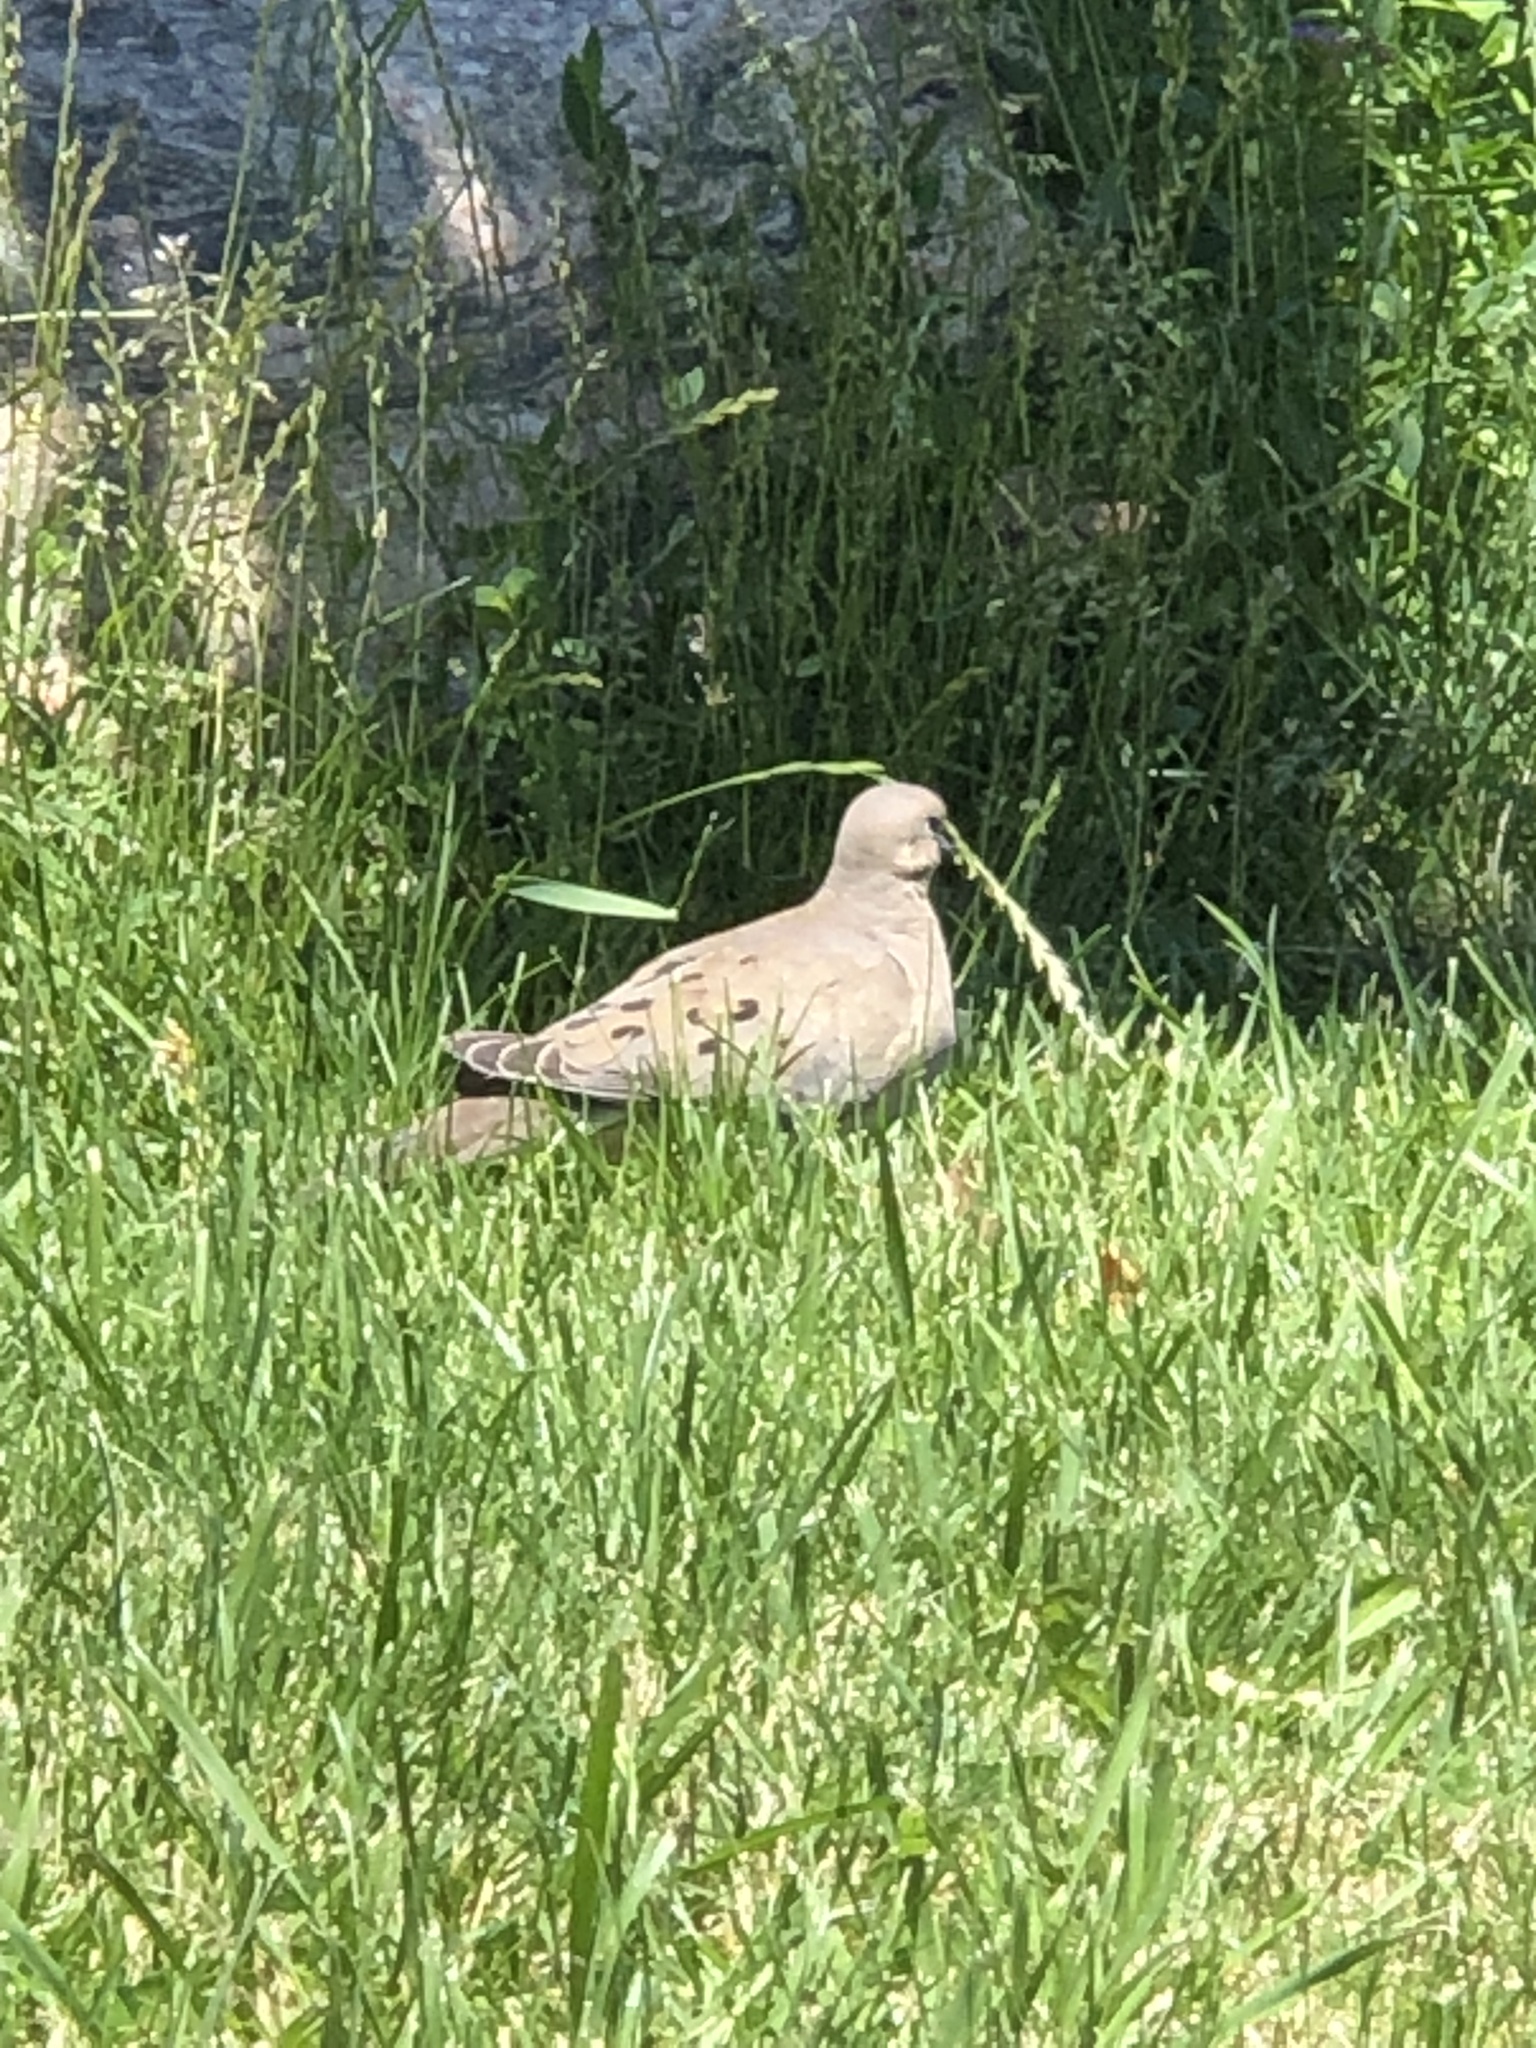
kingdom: Animalia
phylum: Chordata
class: Aves
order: Columbiformes
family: Columbidae
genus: Zenaida
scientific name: Zenaida macroura
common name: Mourning dove
